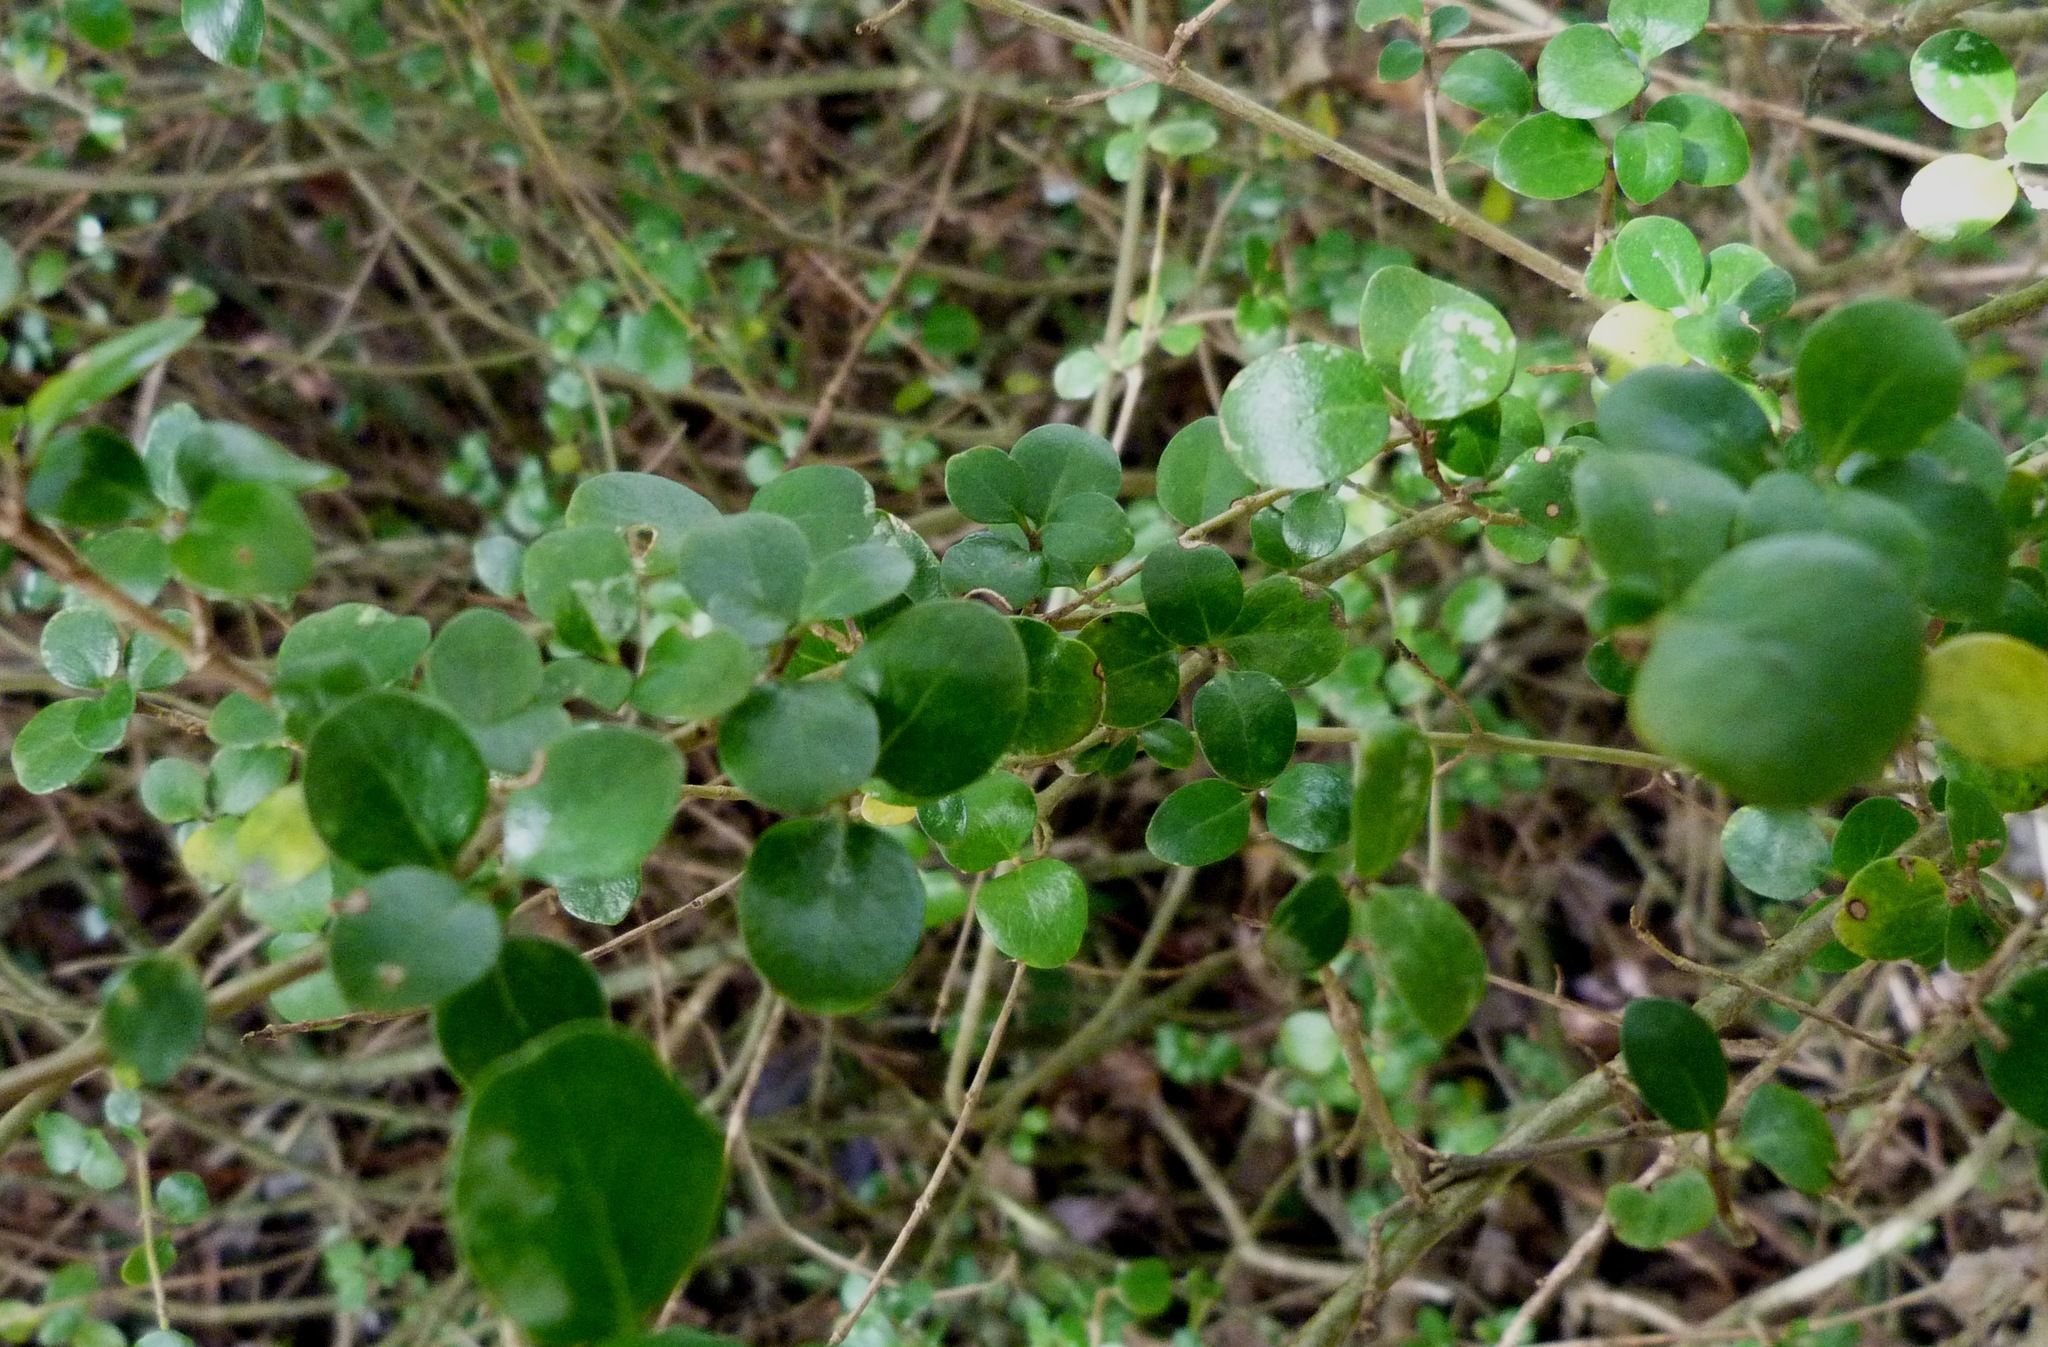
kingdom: Plantae
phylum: Tracheophyta
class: Magnoliopsida
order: Gentianales
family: Rubiaceae
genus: Coprosma
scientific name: Coprosma rhamnoides
